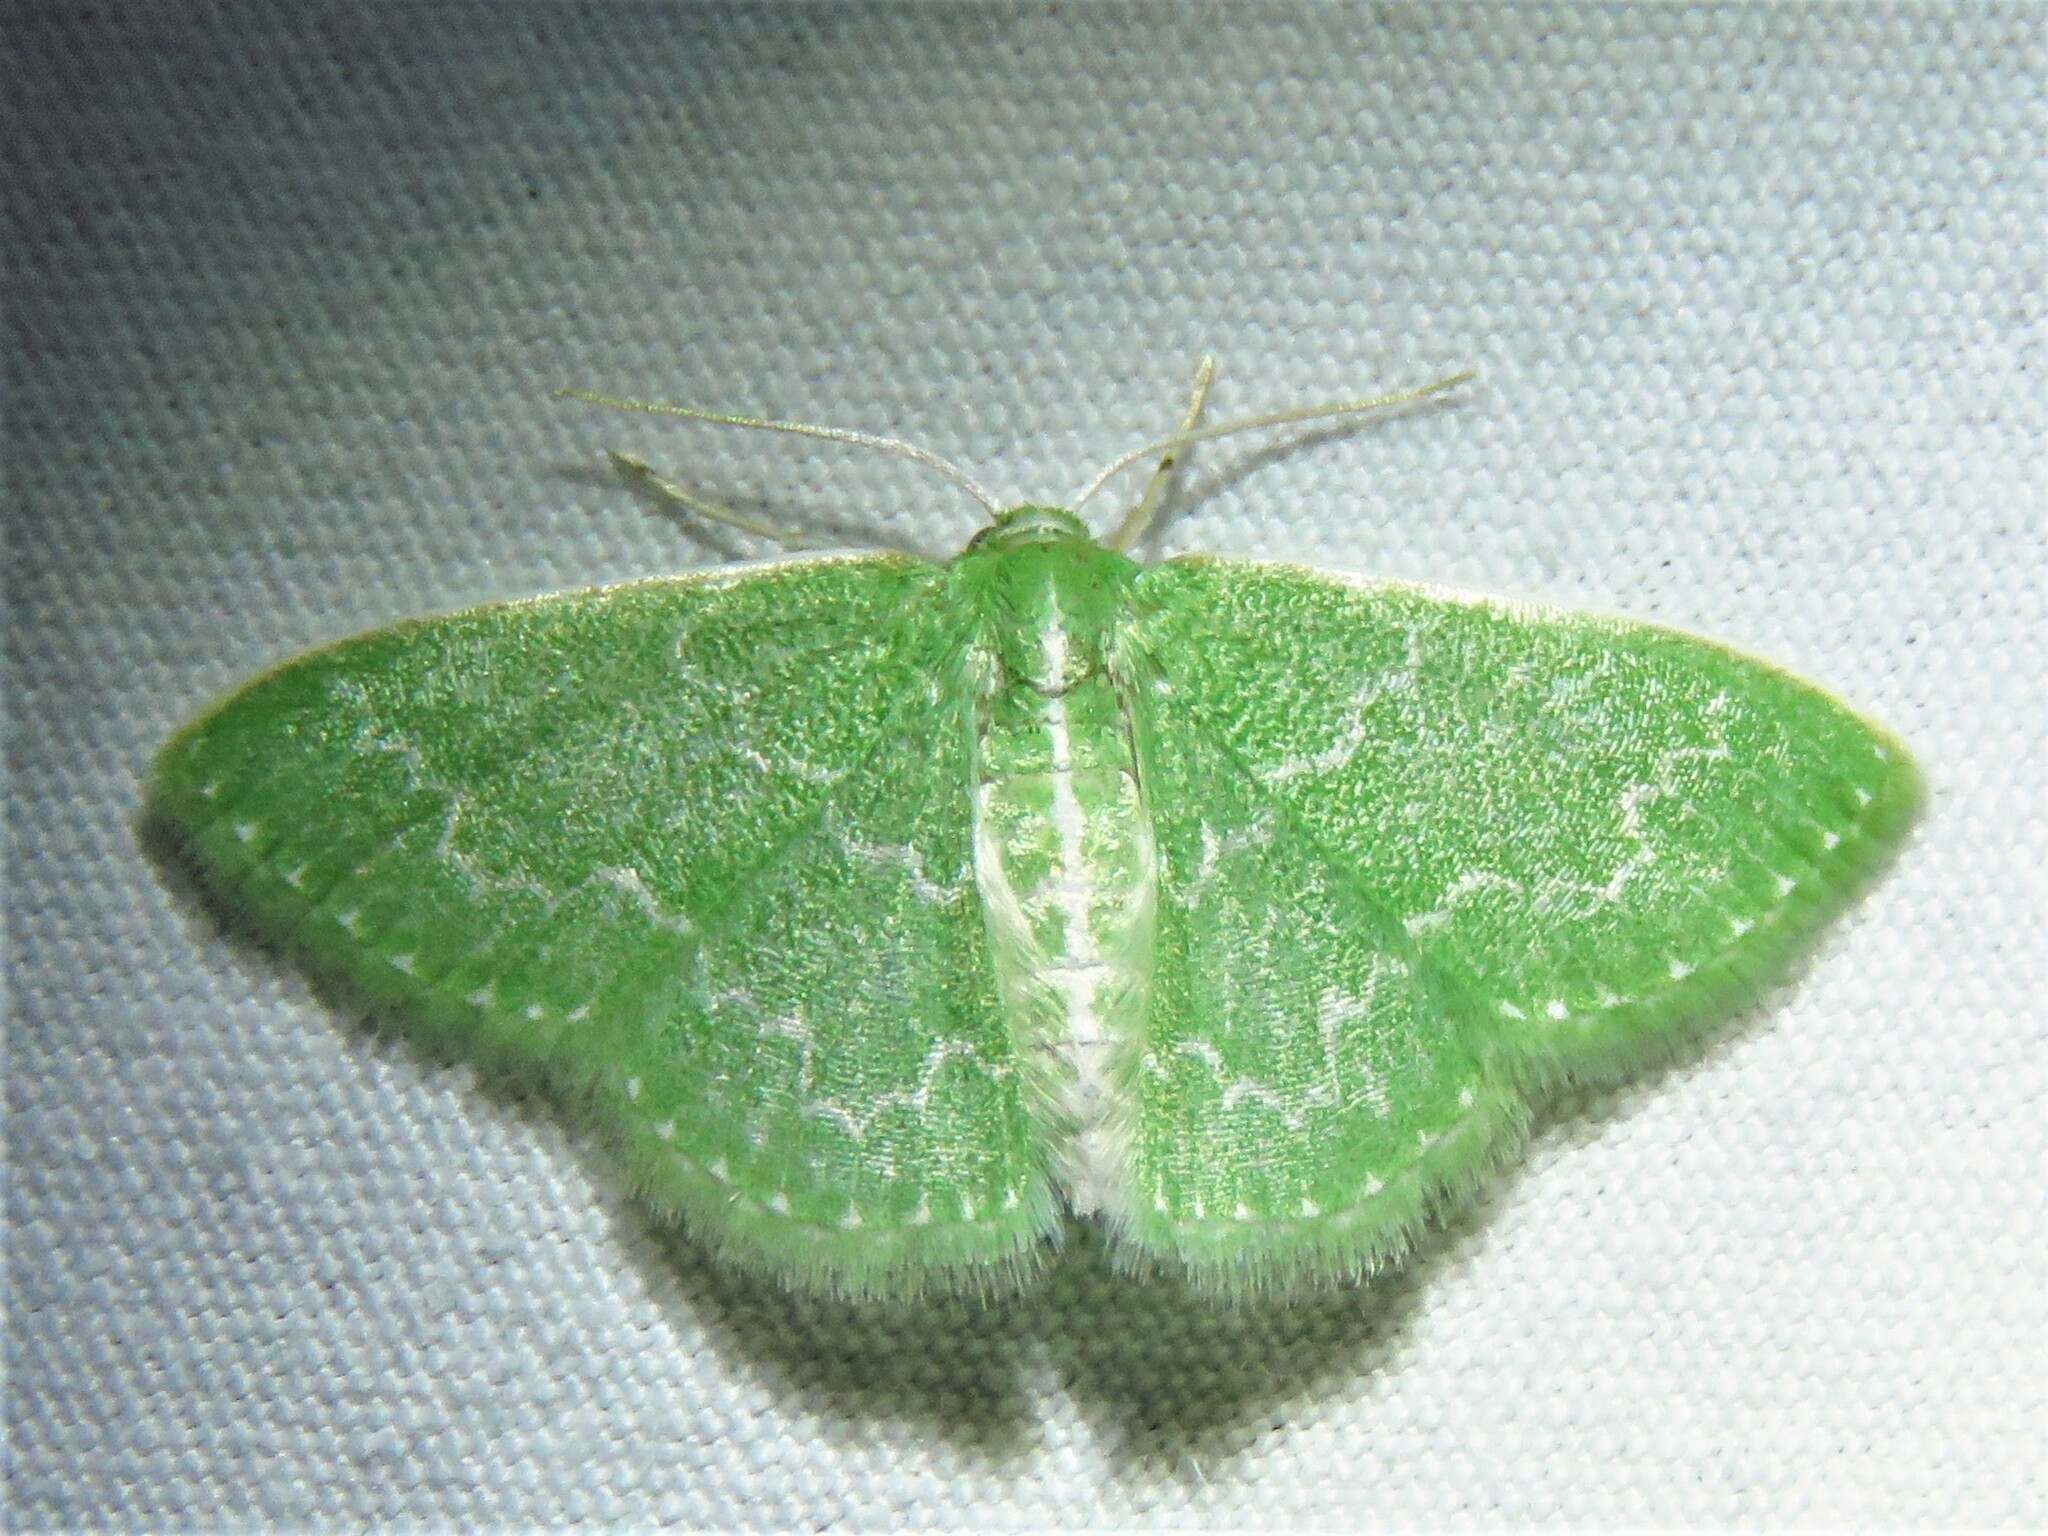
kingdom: Animalia
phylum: Arthropoda
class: Insecta
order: Lepidoptera
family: Geometridae
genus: Synchlora
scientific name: Synchlora frondaria
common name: Southern emerald
